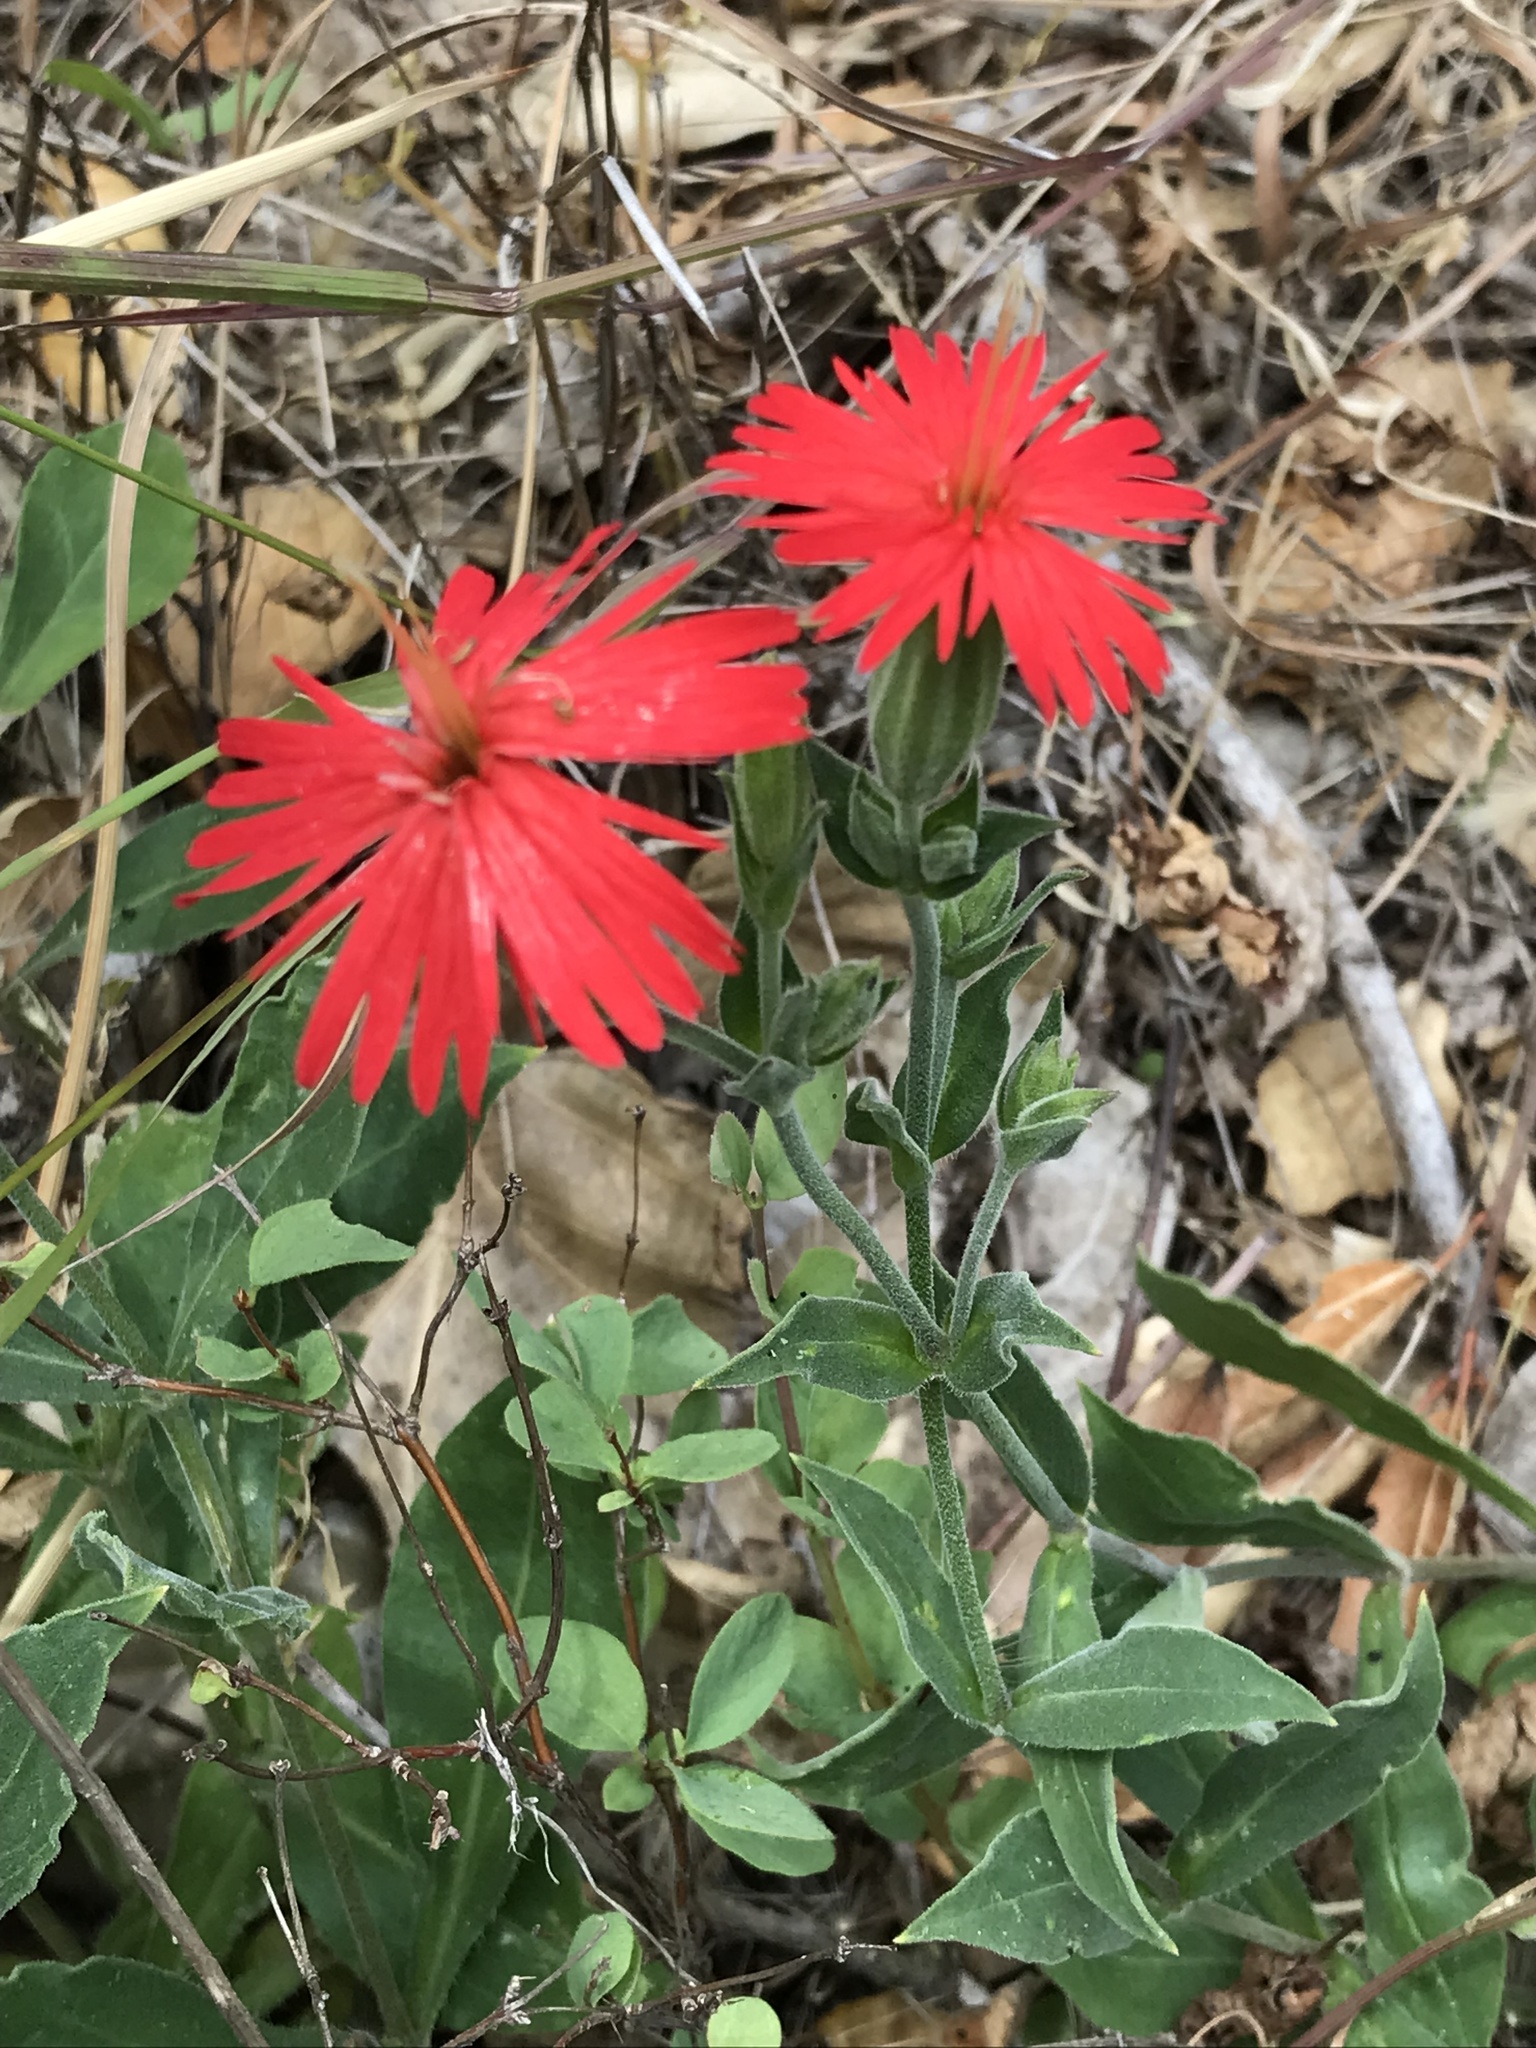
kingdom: Plantae
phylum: Tracheophyta
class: Magnoliopsida
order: Caryophyllales
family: Caryophyllaceae
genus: Silene
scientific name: Silene laciniata
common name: Indian-pink
